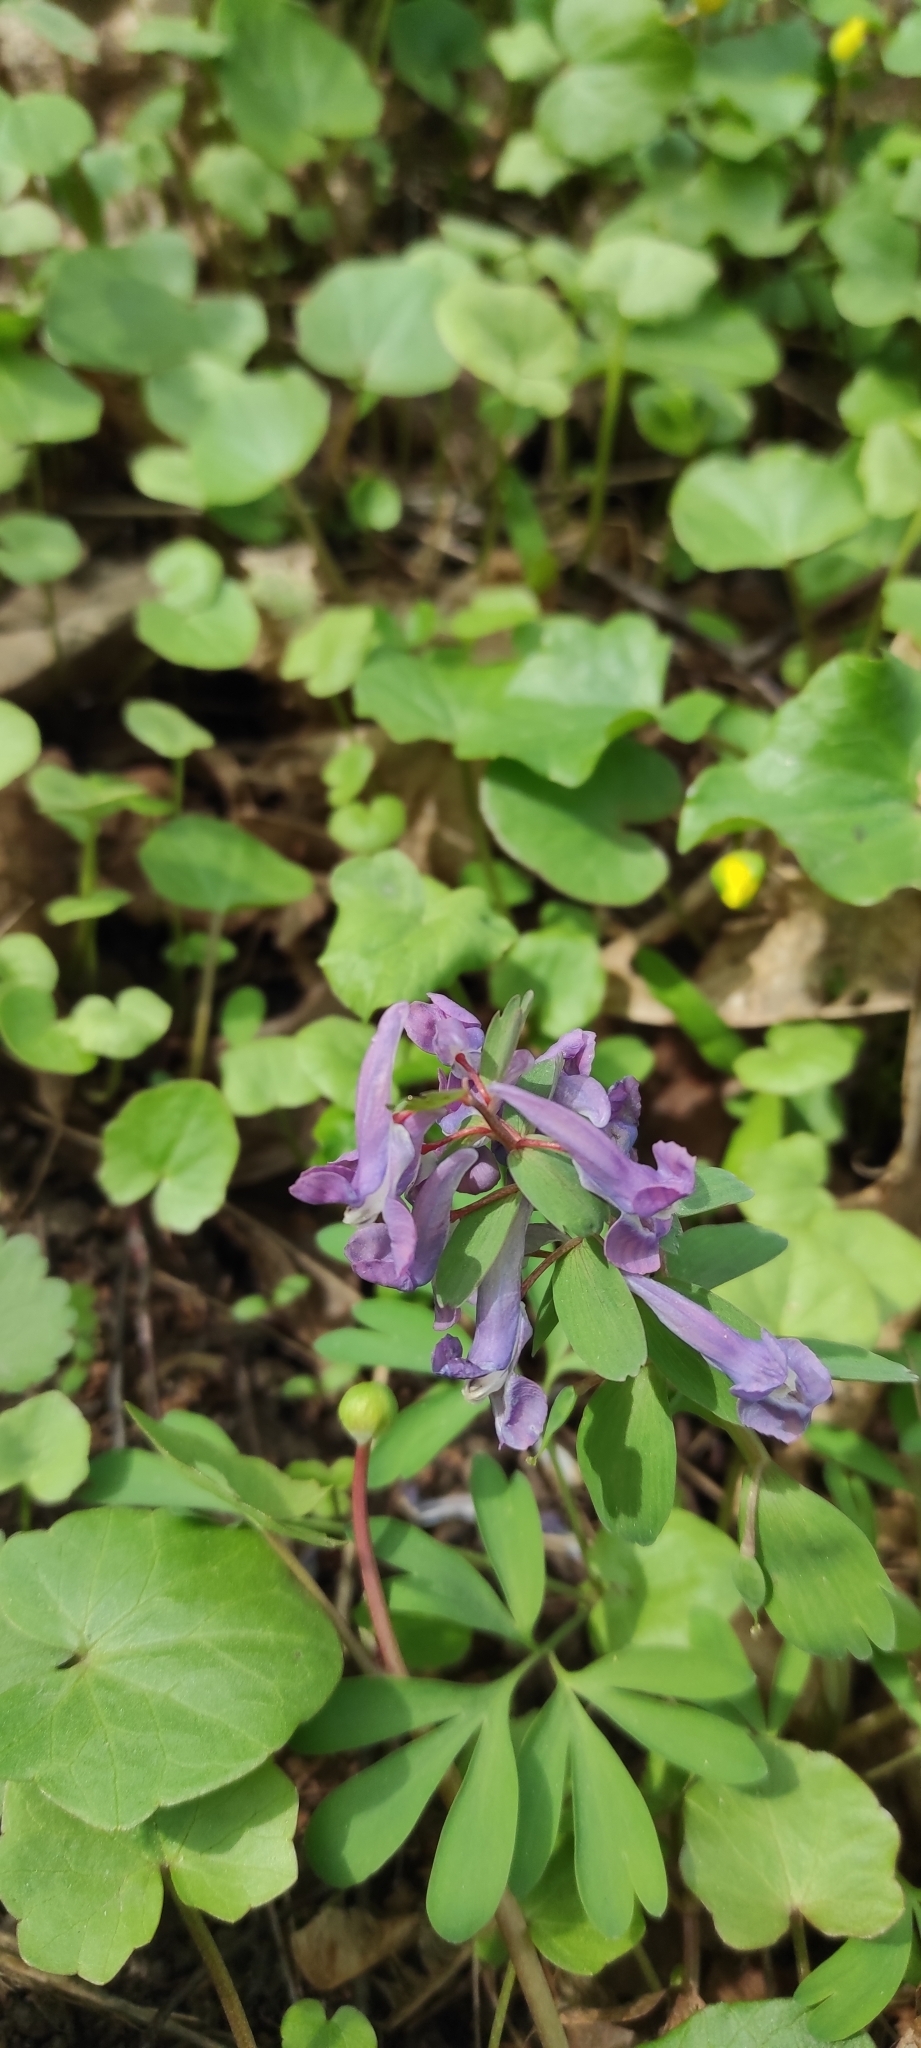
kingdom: Plantae
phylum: Tracheophyta
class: Magnoliopsida
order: Ranunculales
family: Papaveraceae
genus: Corydalis
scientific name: Corydalis solida
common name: Bird-in-a-bush
